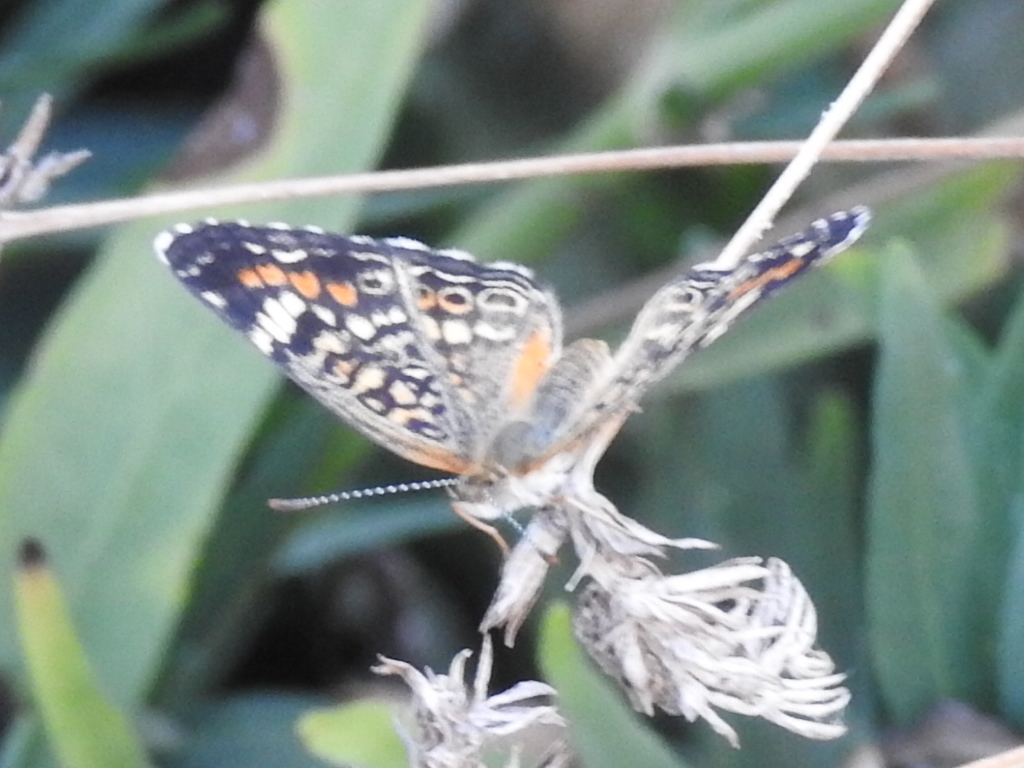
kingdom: Animalia
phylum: Arthropoda
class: Insecta
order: Lepidoptera
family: Nymphalidae
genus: Phyciodes
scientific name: Phyciodes phaon
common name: Phaon crescent
